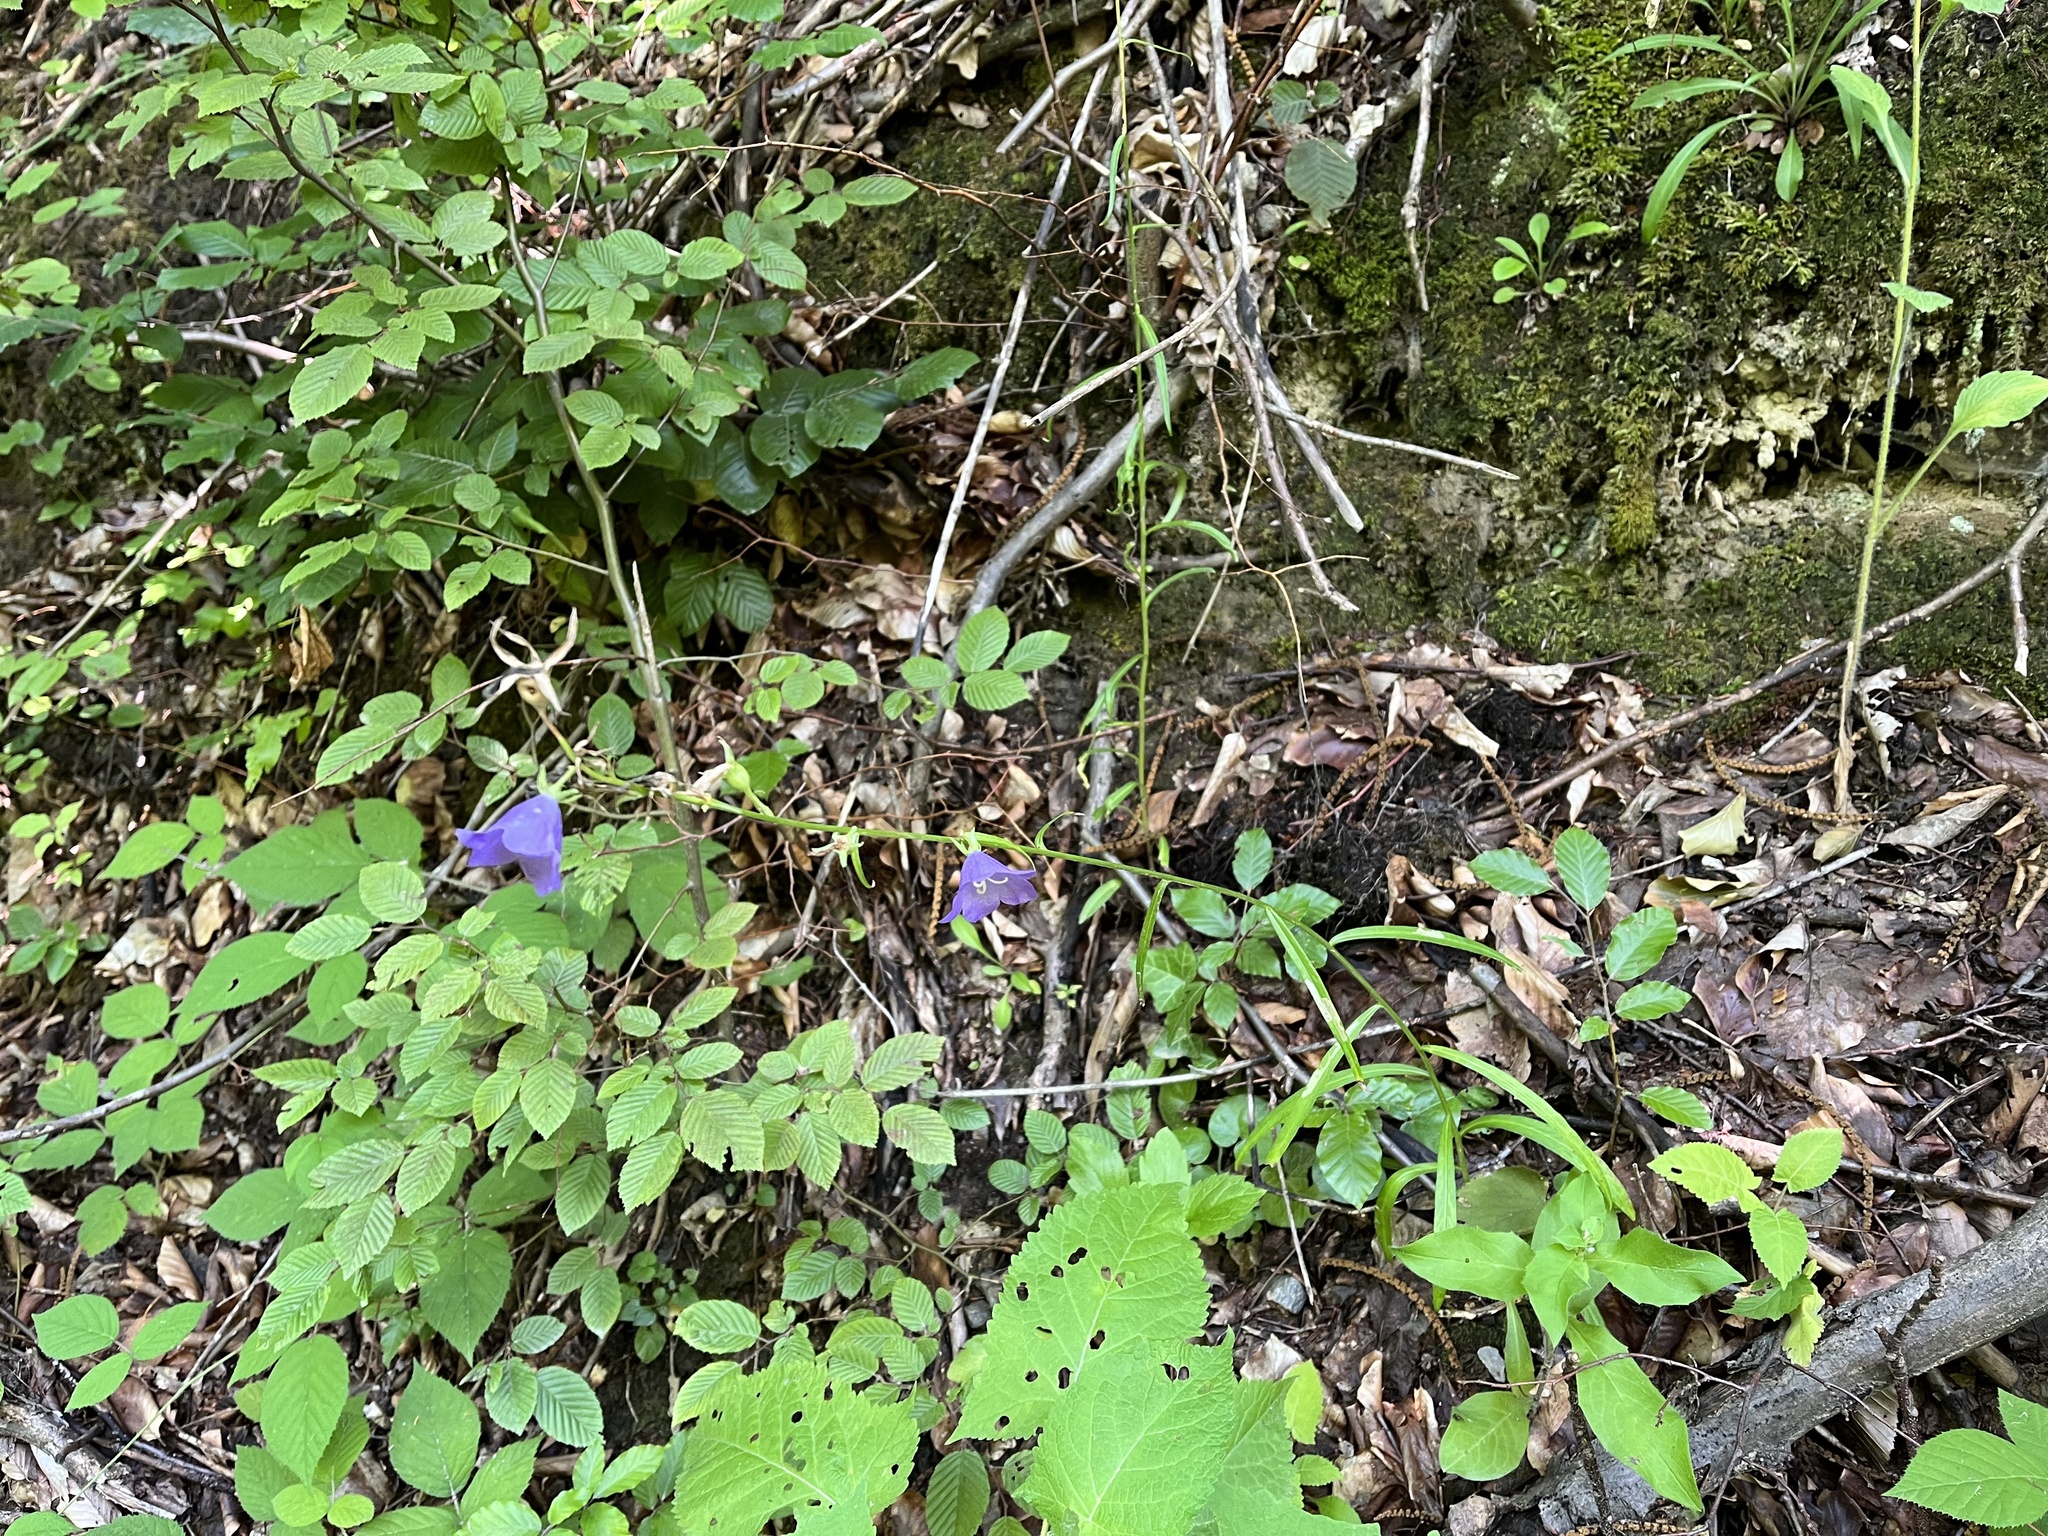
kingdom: Plantae
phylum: Tracheophyta
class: Magnoliopsida
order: Asterales
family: Campanulaceae
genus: Campanula
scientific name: Campanula persicifolia
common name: Peach-leaved bellflower
